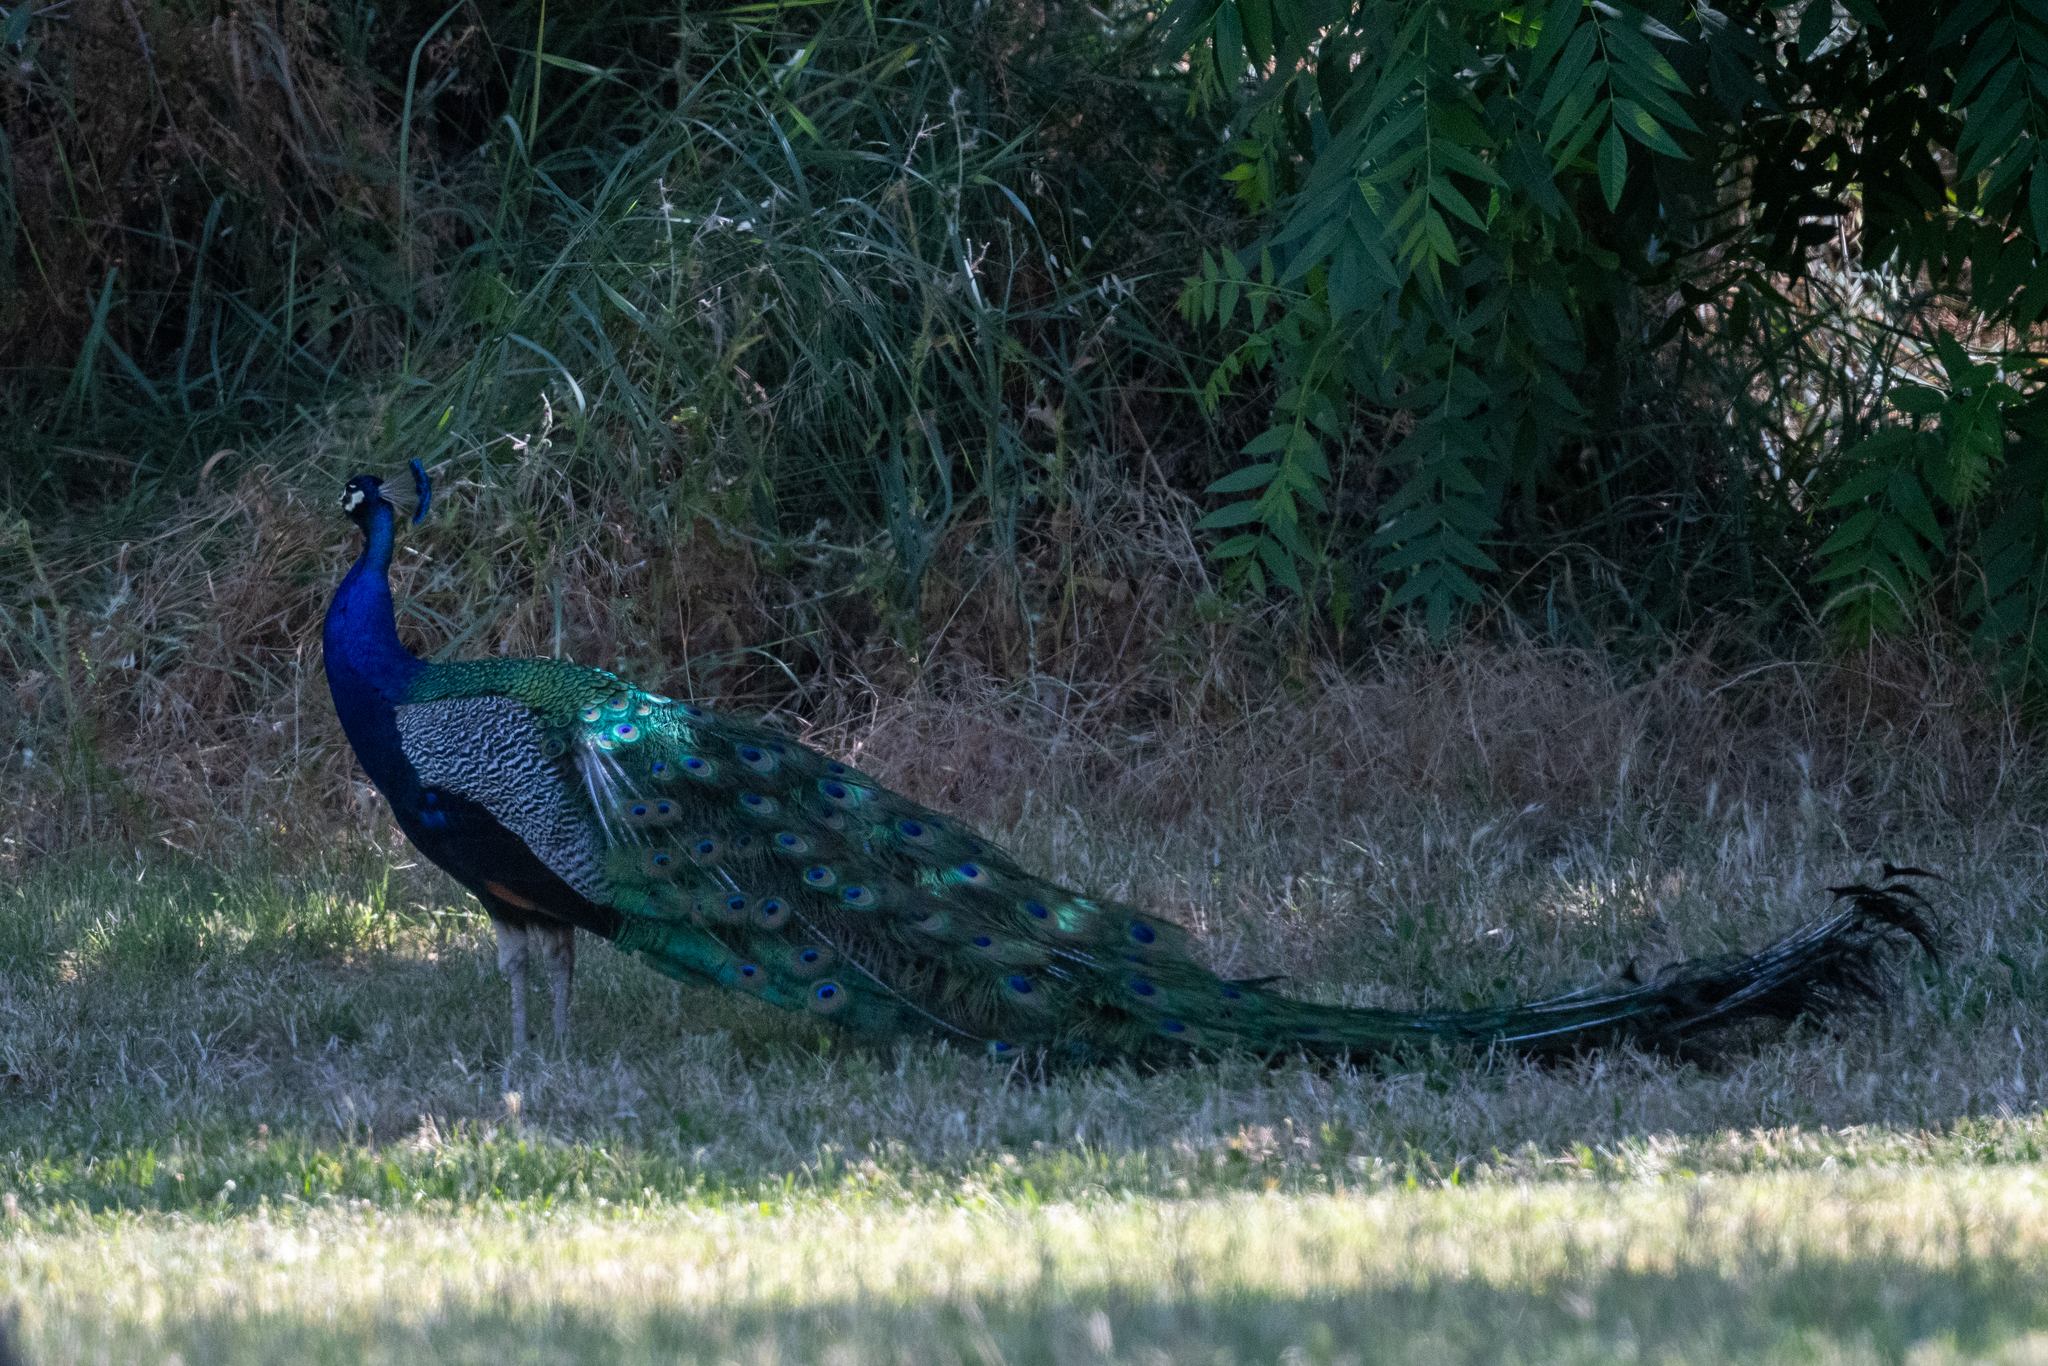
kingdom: Animalia
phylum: Chordata
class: Aves
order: Galliformes
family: Phasianidae
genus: Pavo
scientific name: Pavo cristatus
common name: Indian peafowl
